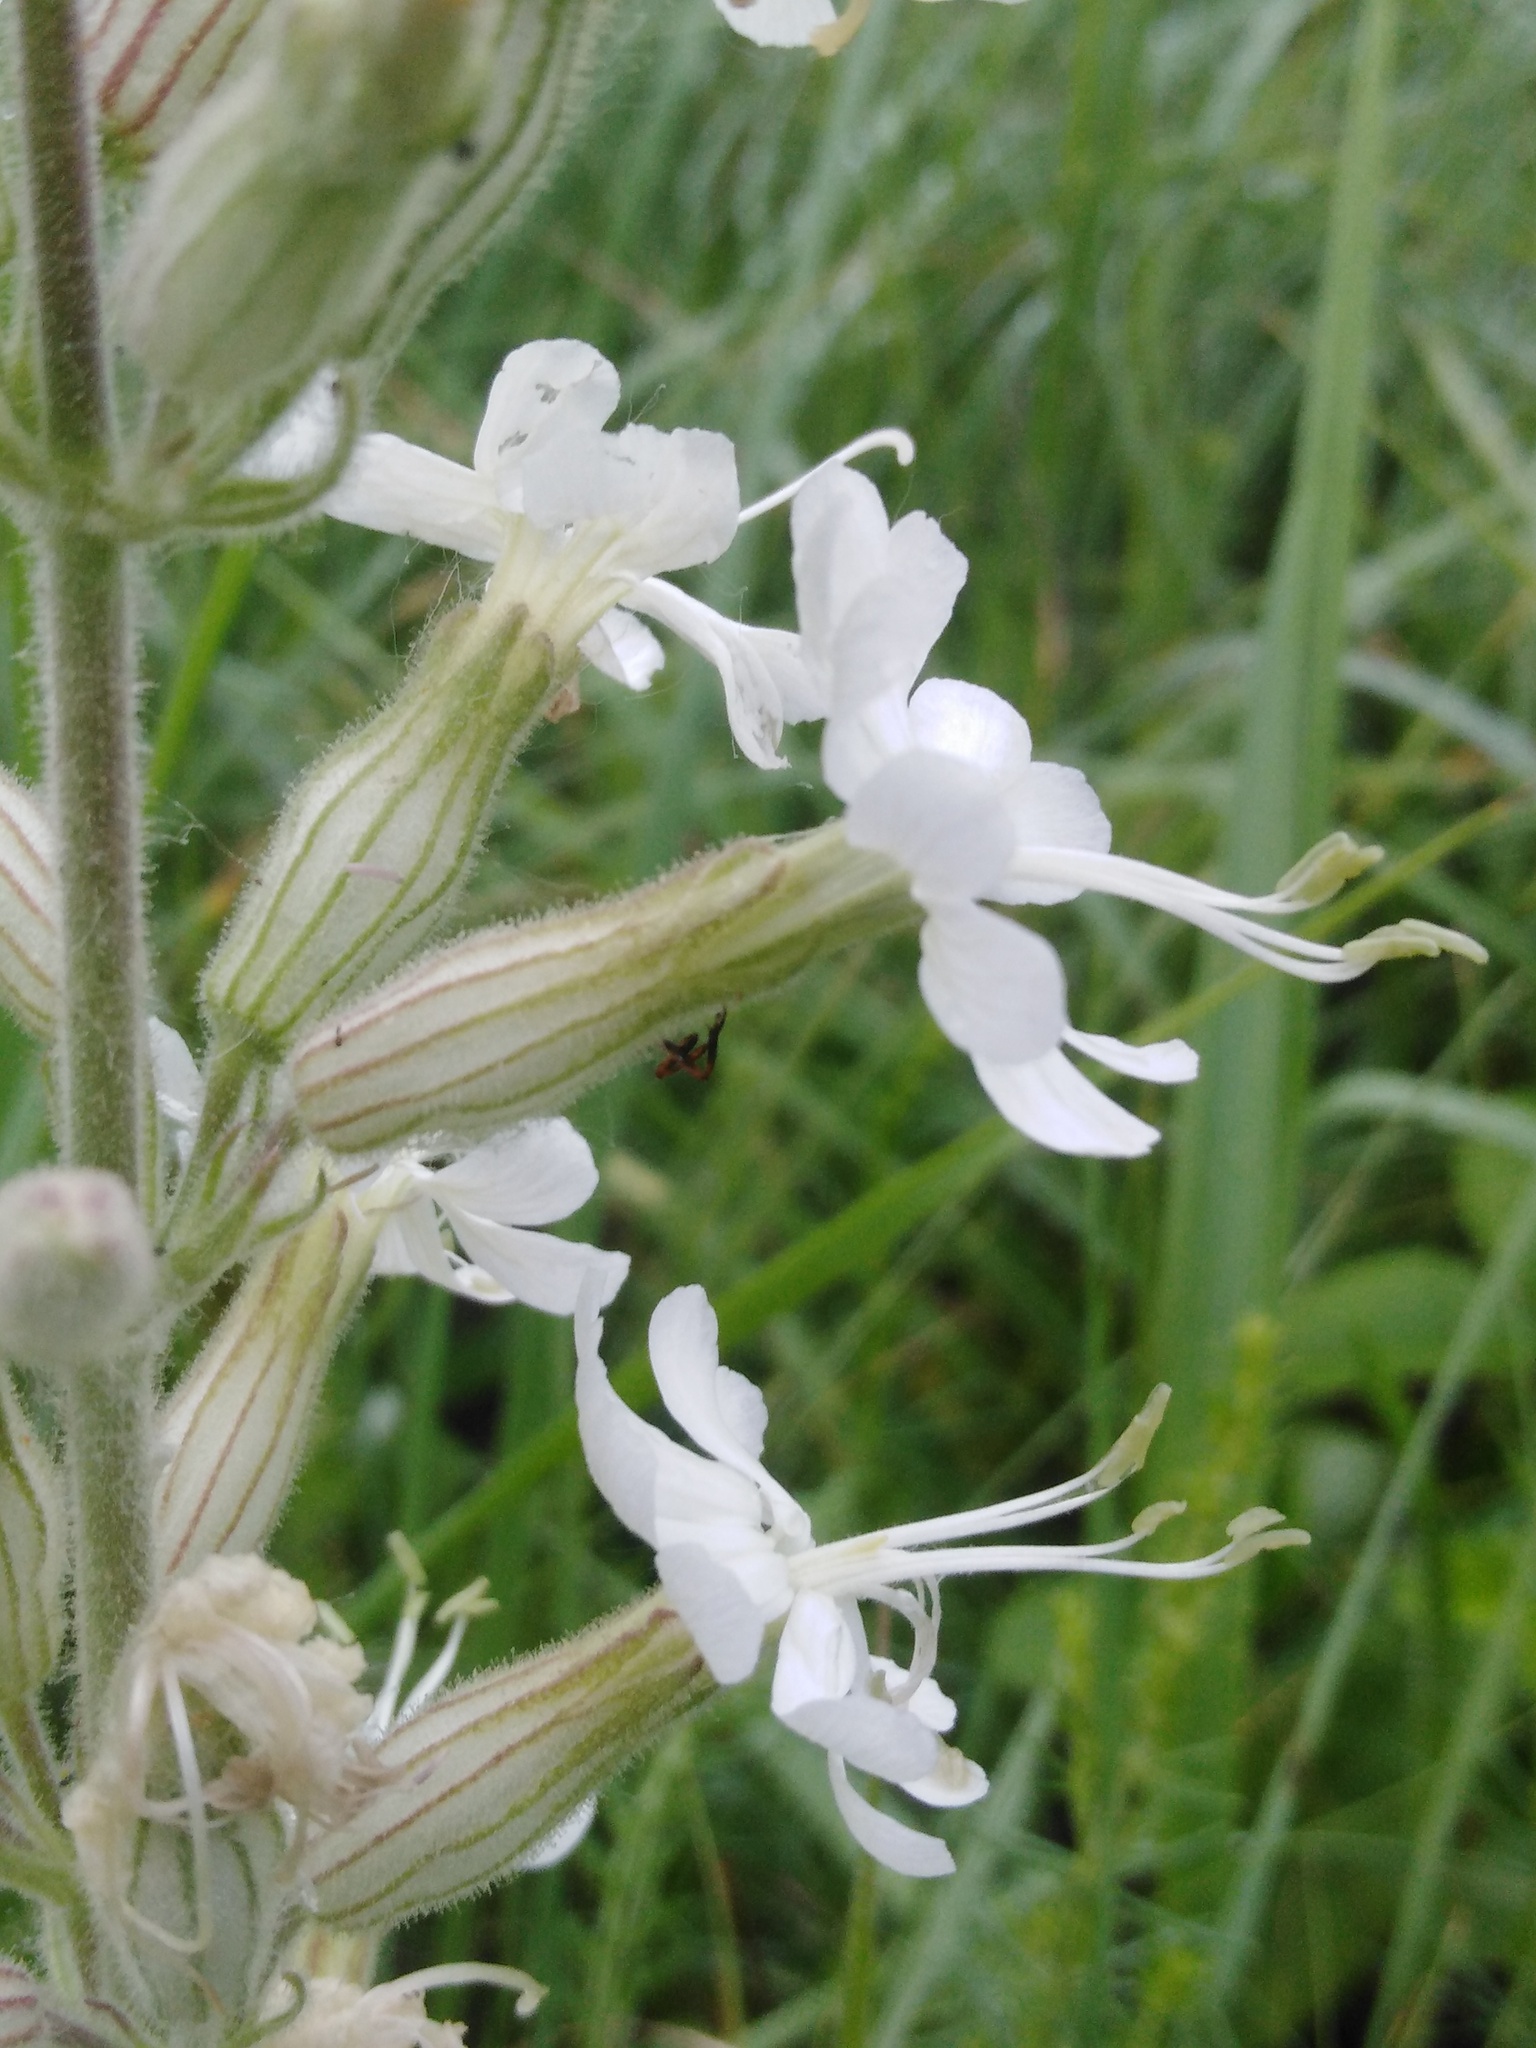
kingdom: Plantae
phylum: Tracheophyta
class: Magnoliopsida
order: Caryophyllales
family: Caryophyllaceae
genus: Silene
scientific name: Silene viscosa
